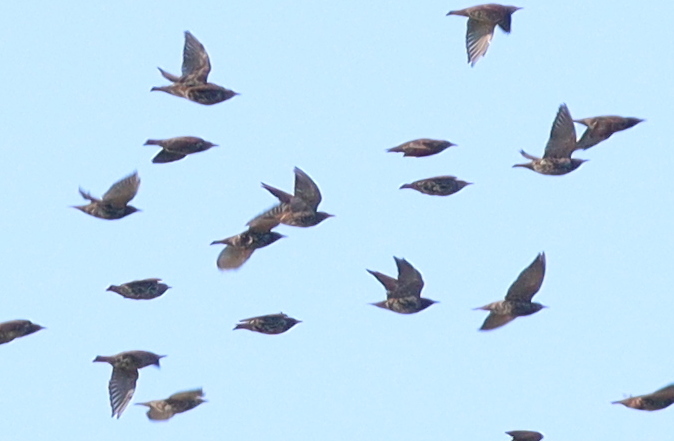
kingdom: Animalia
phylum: Chordata
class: Aves
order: Passeriformes
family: Sturnidae
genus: Sturnus
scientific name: Sturnus vulgaris
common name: Common starling
